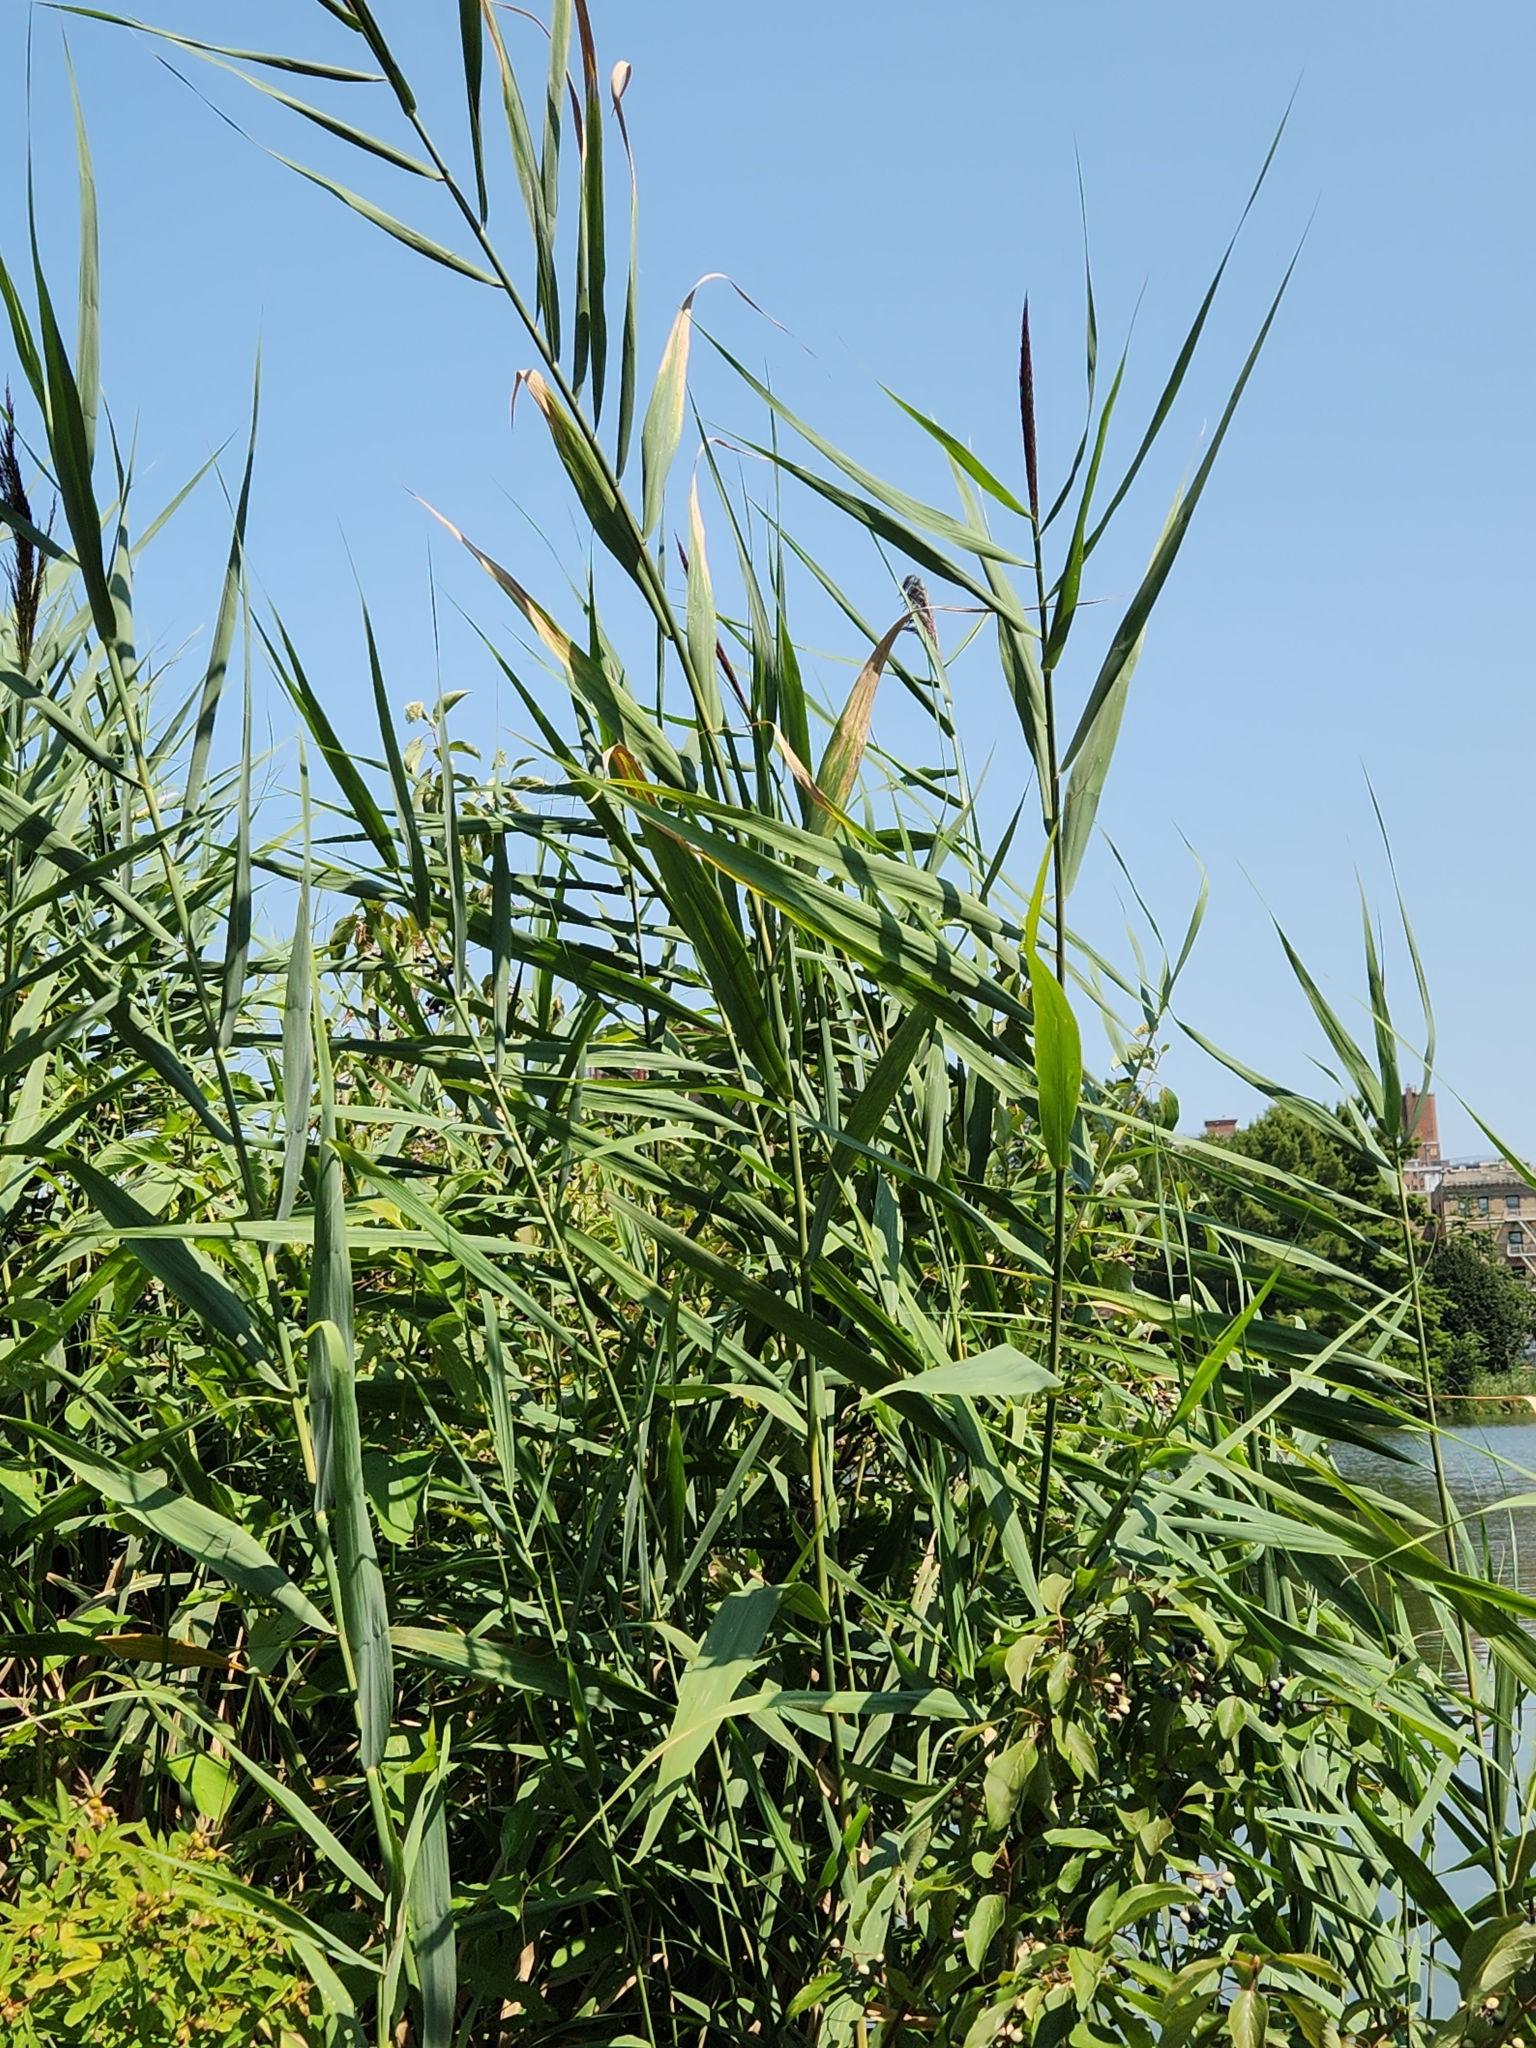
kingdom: Plantae
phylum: Tracheophyta
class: Liliopsida
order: Poales
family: Poaceae
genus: Phragmites
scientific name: Phragmites australis
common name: Common reed
